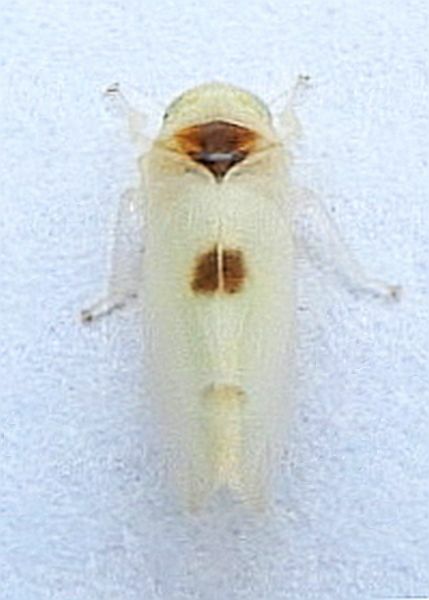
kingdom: Animalia
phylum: Arthropoda
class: Insecta
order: Hemiptera
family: Cicadellidae
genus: Empoa
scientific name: Empoa albicans
